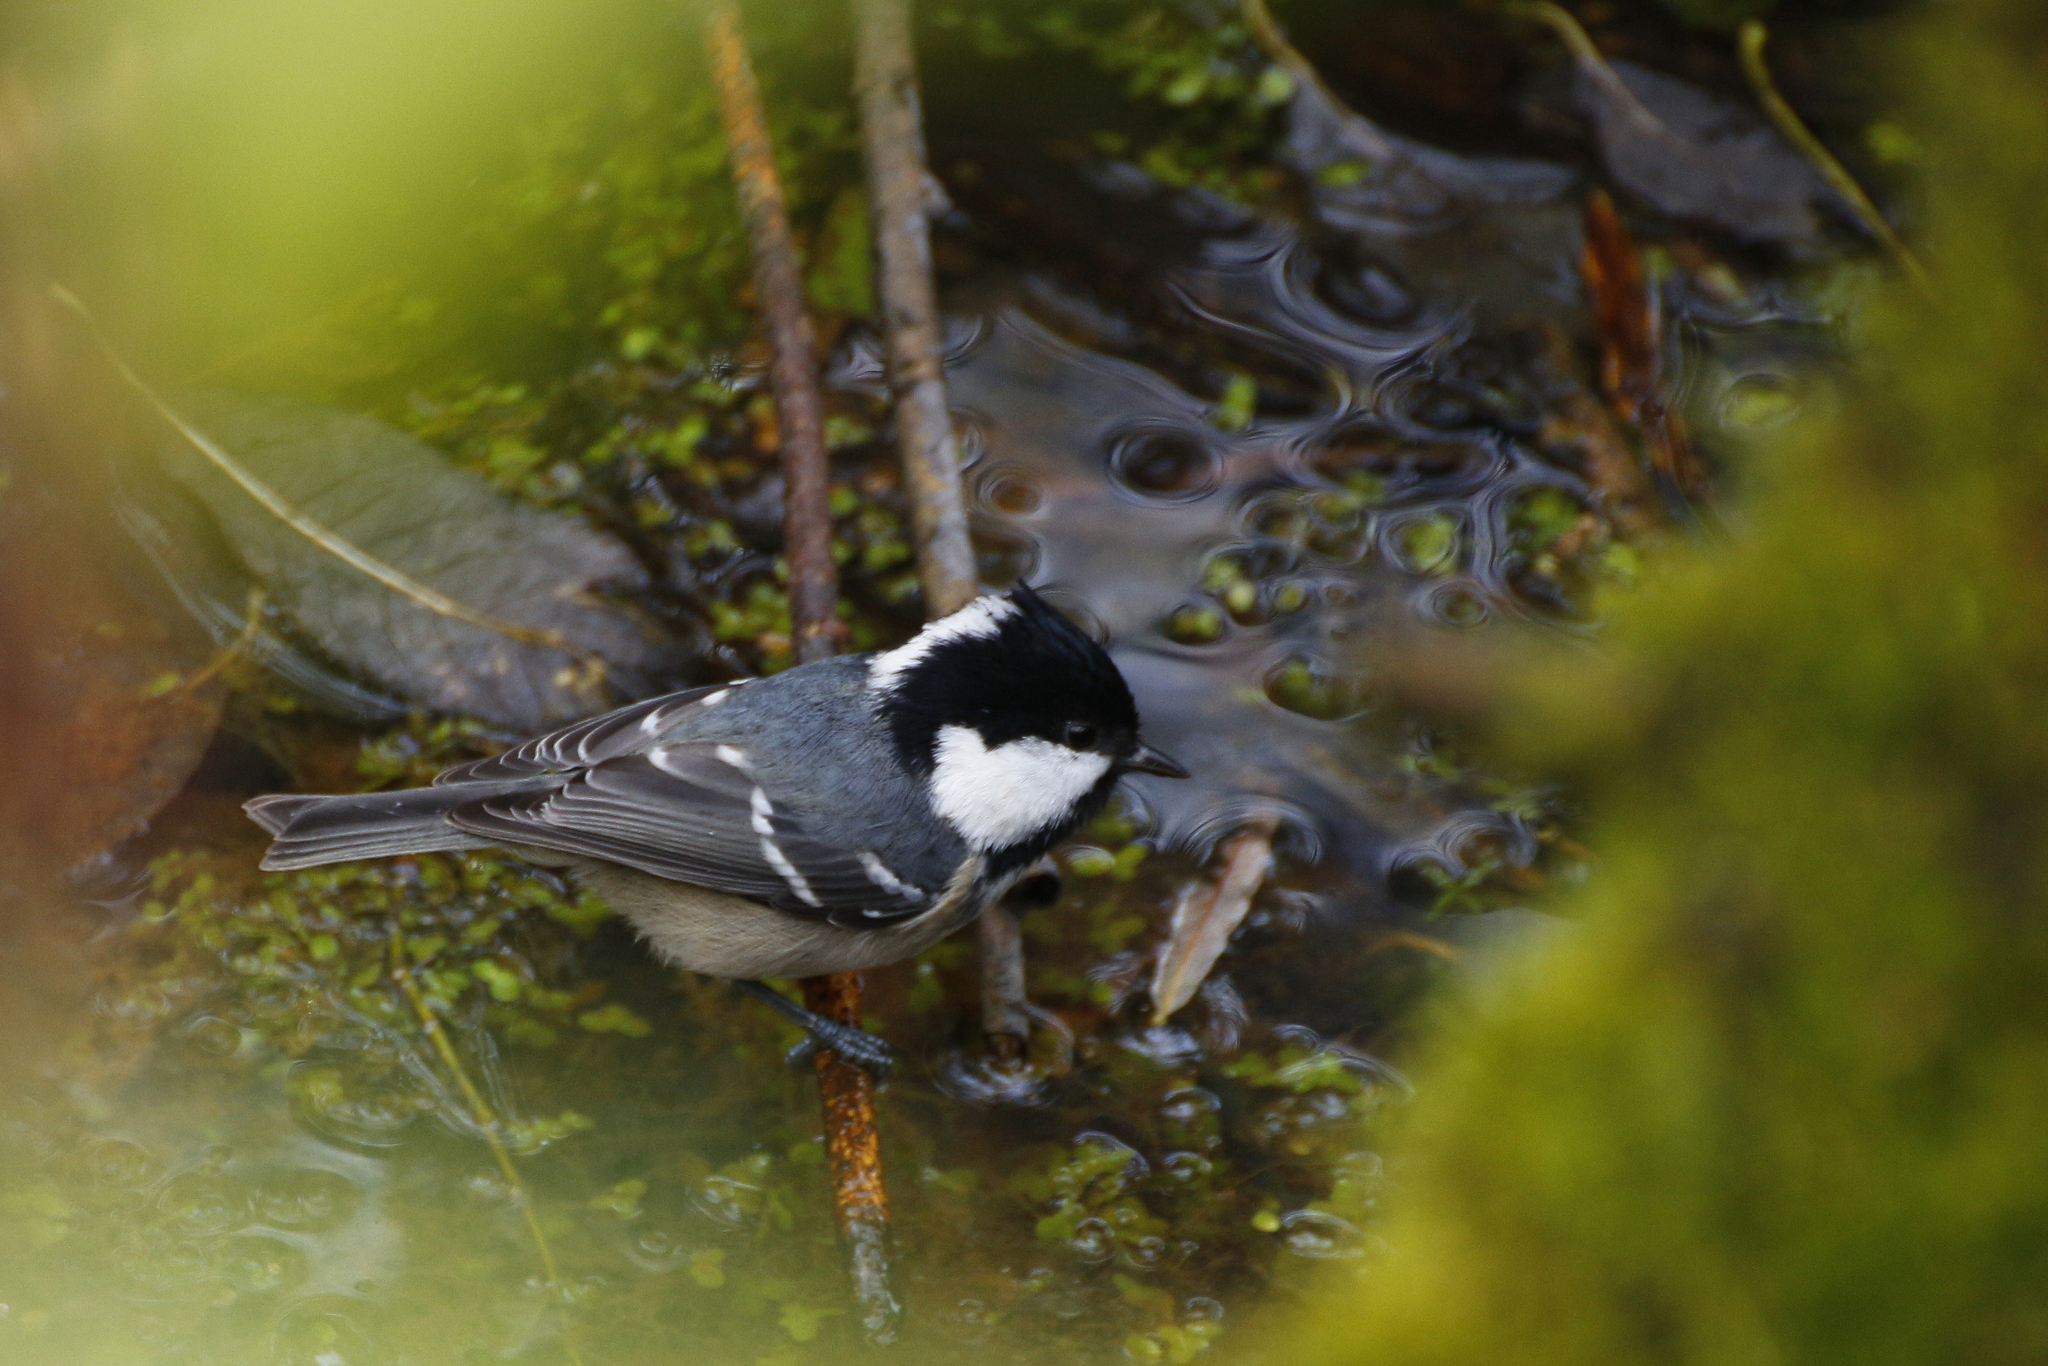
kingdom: Animalia
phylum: Chordata
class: Aves
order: Passeriformes
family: Paridae
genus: Periparus
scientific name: Periparus ater
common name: Coal tit
